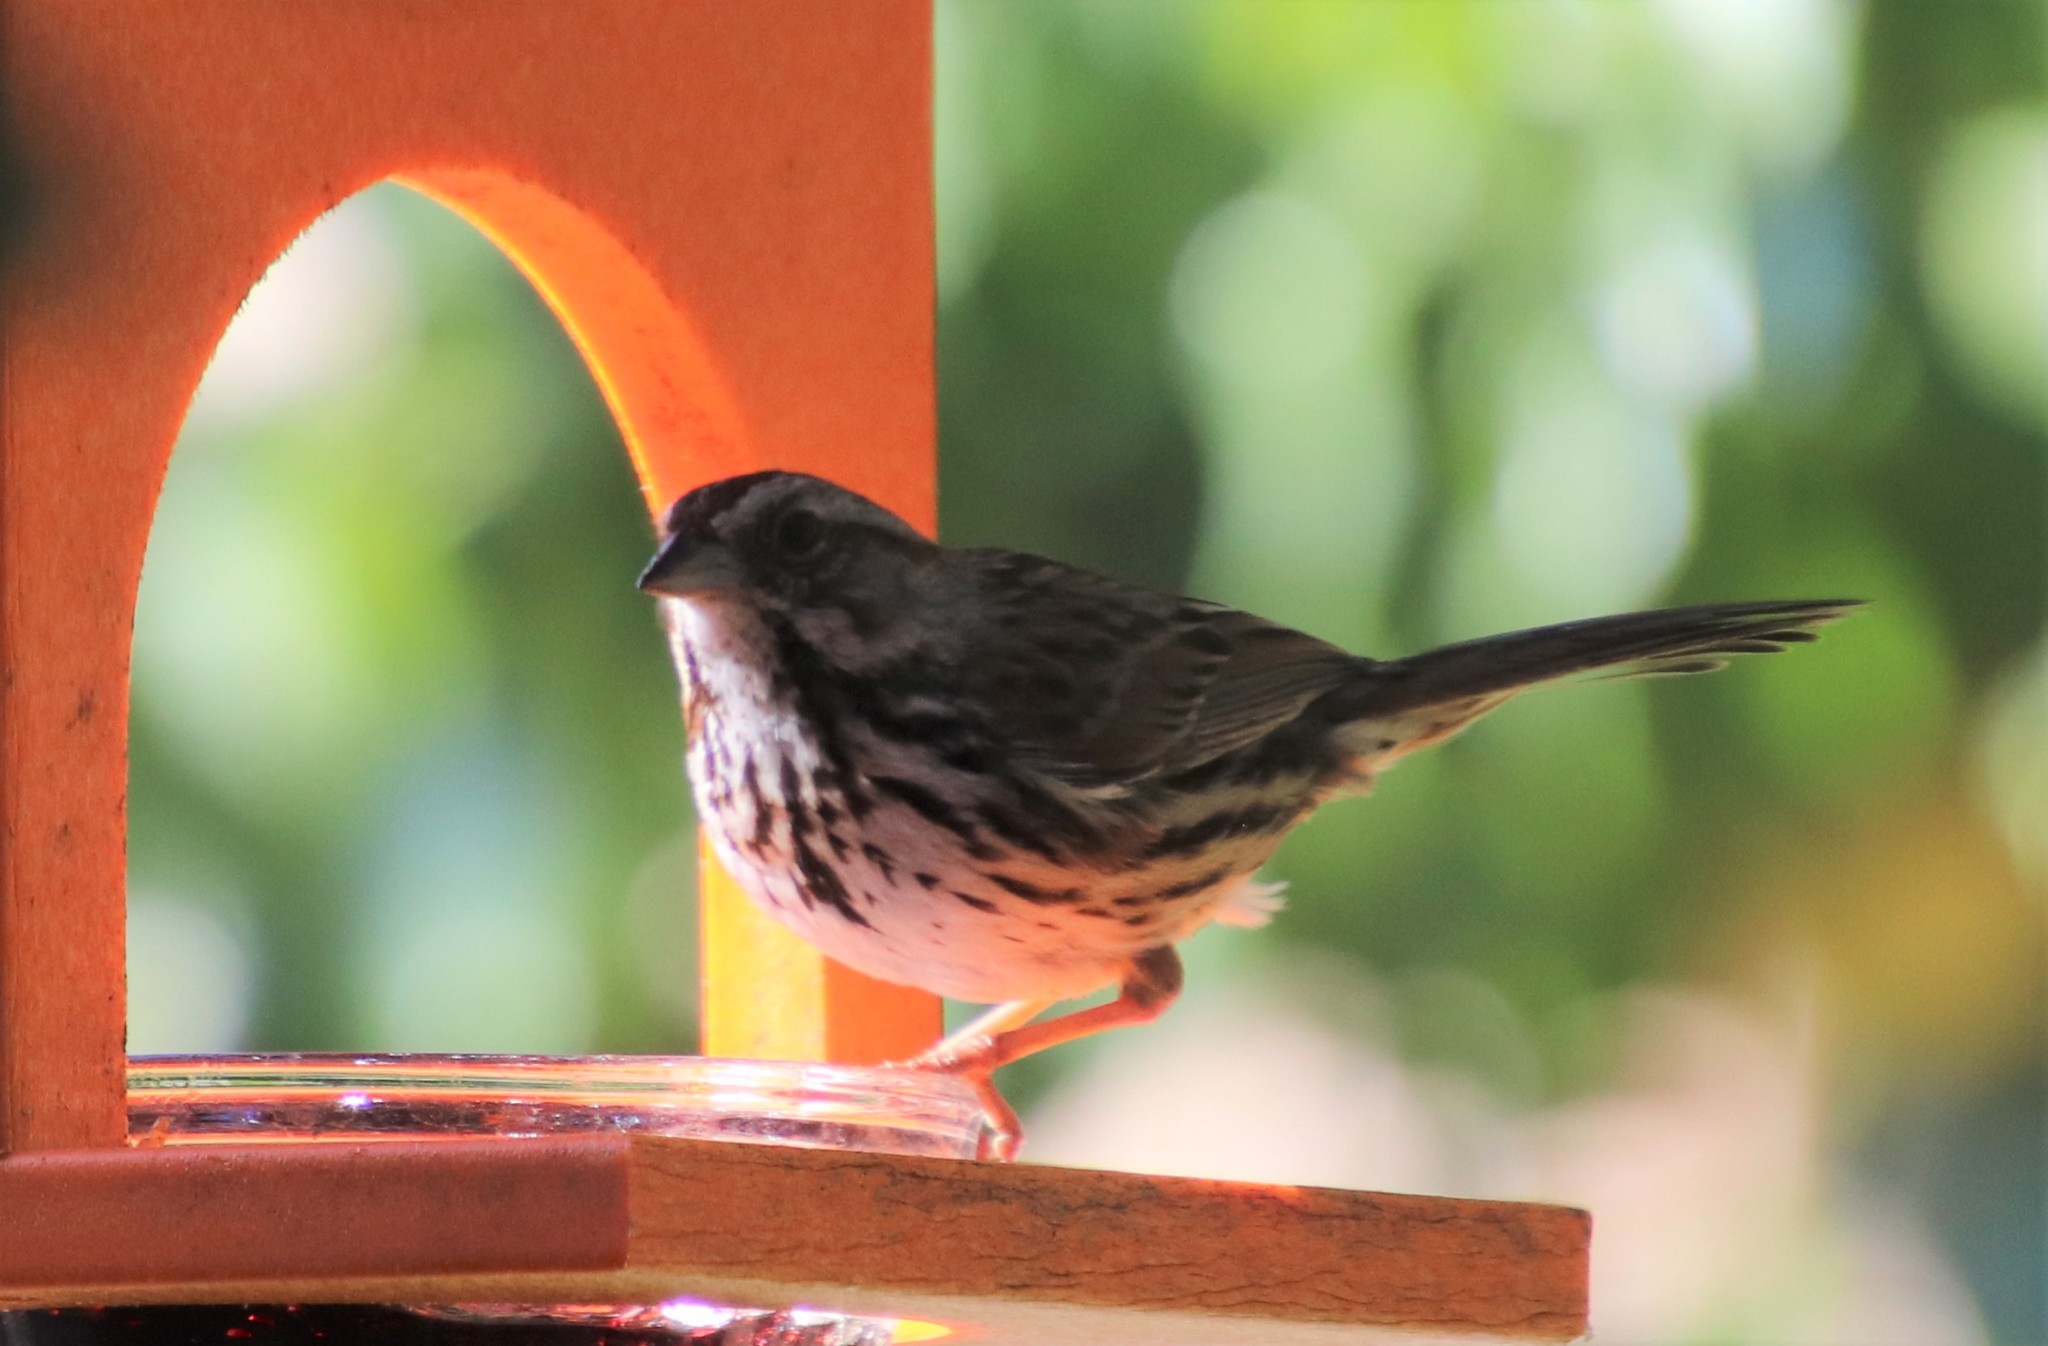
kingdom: Animalia
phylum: Chordata
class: Aves
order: Passeriformes
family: Passerellidae
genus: Melospiza
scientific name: Melospiza melodia
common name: Song sparrow
